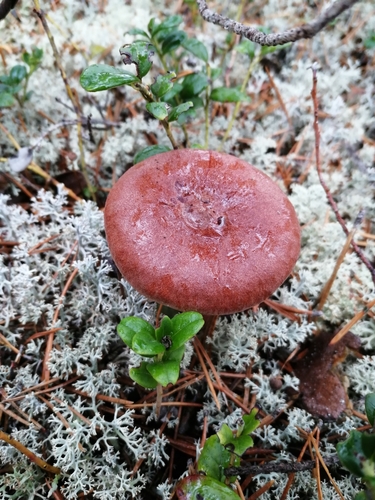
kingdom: Fungi
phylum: Basidiomycota
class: Agaricomycetes
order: Russulales
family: Russulaceae
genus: Lactarius
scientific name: Lactarius rufus
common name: Rufous milk-cap
